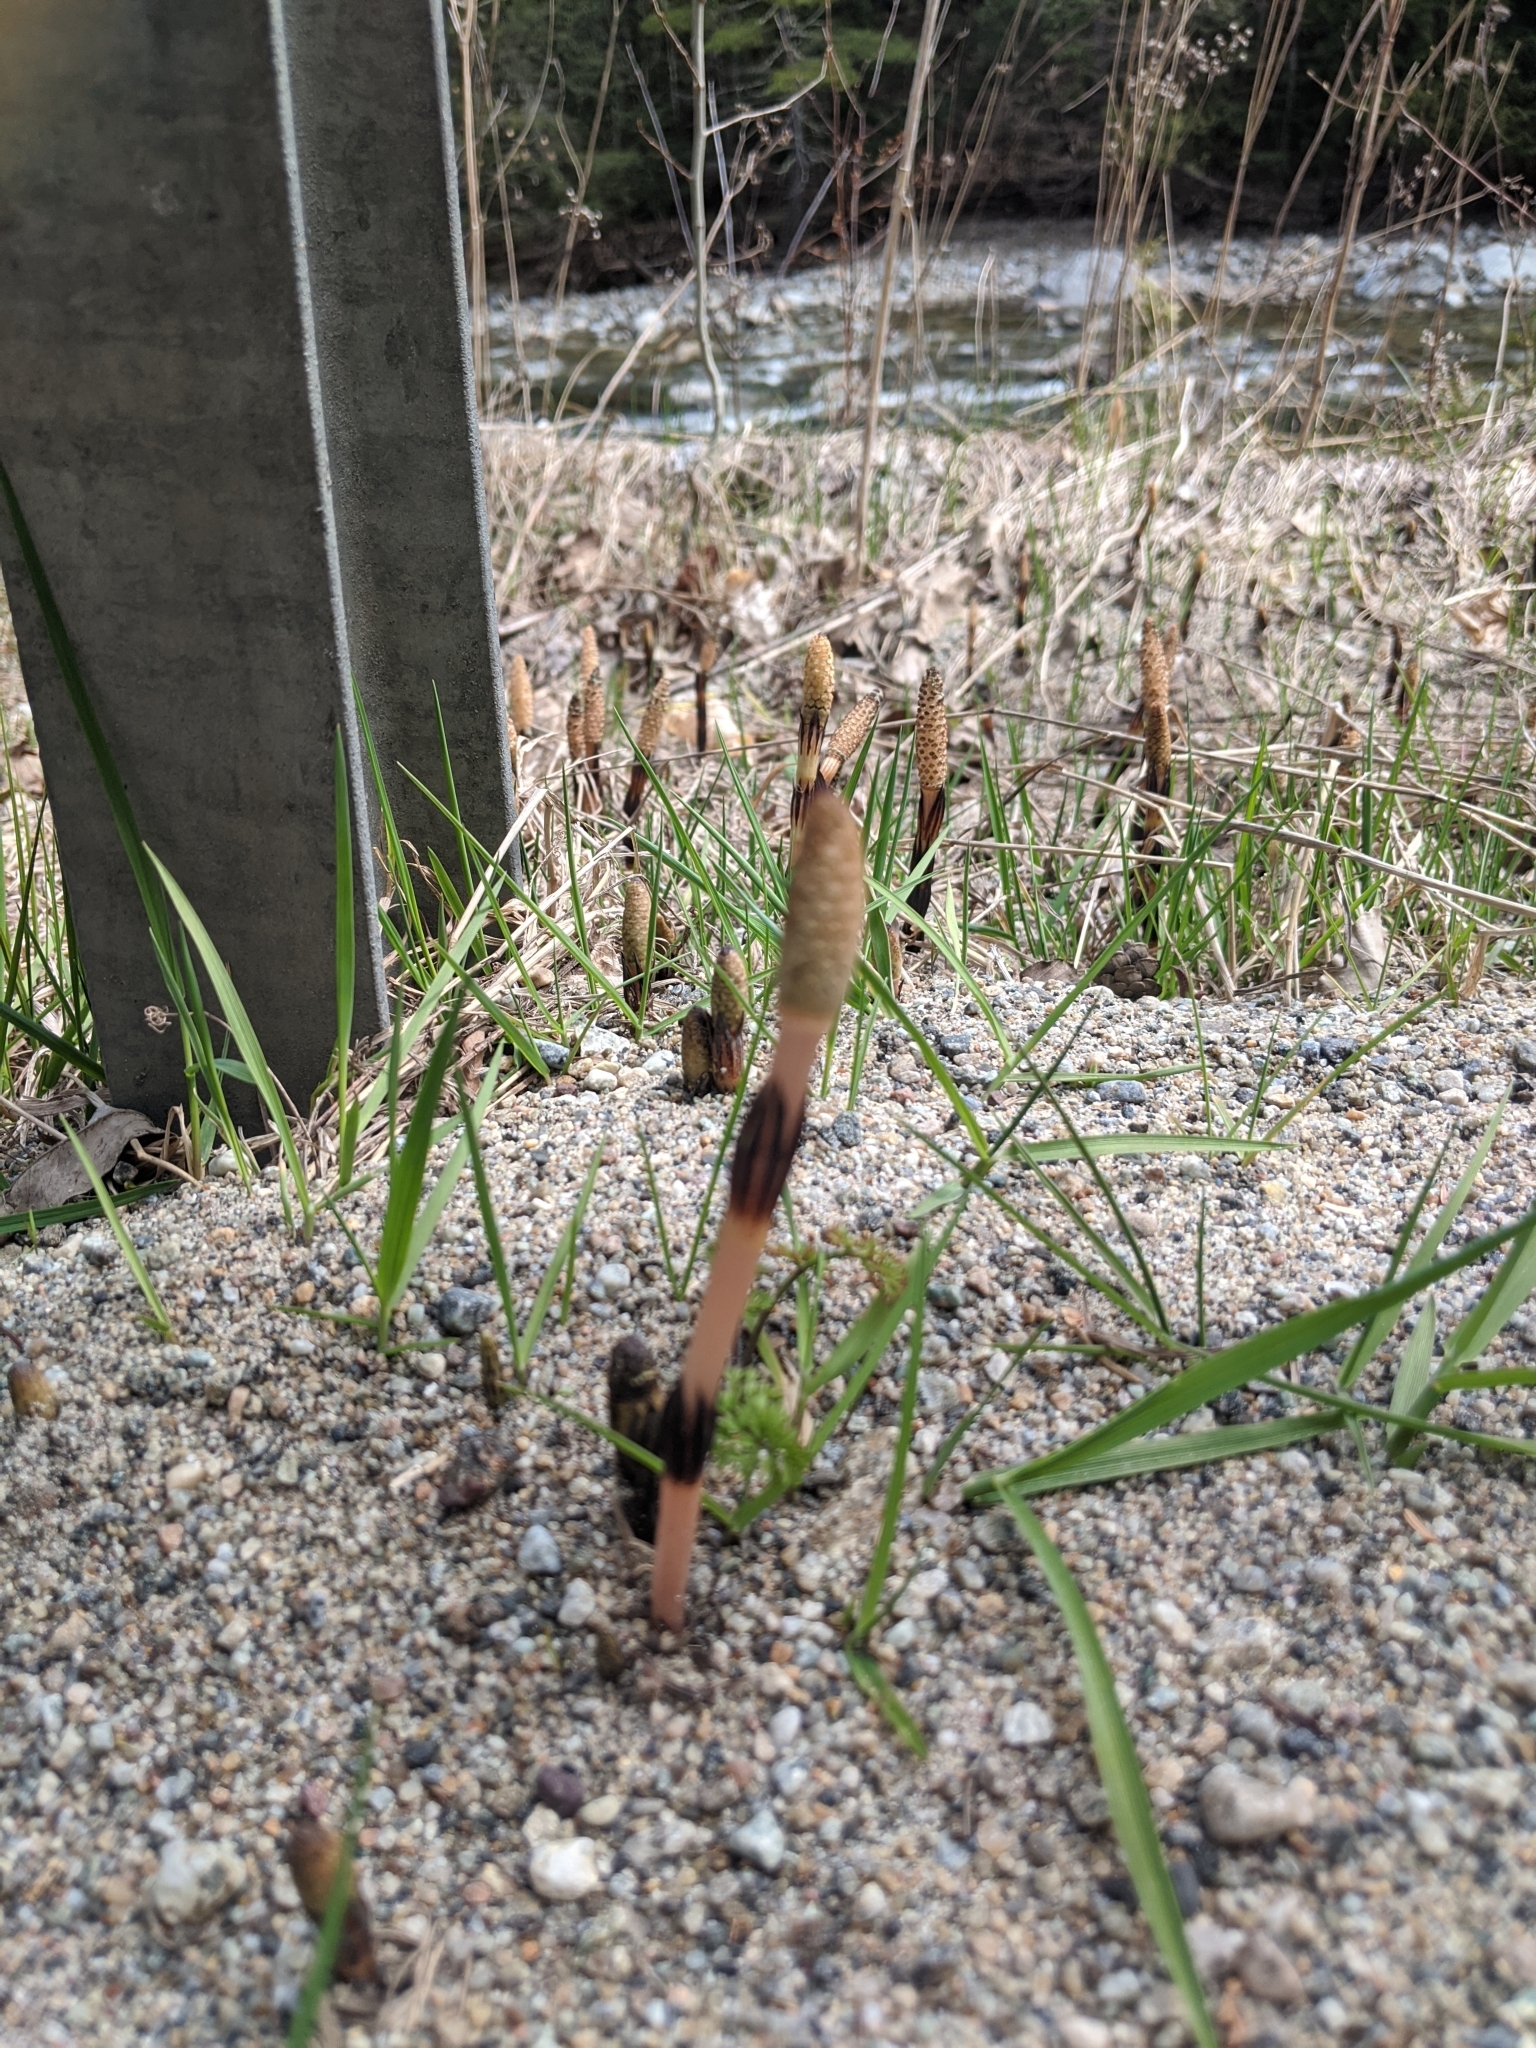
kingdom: Plantae
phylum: Tracheophyta
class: Polypodiopsida
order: Equisetales
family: Equisetaceae
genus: Equisetum
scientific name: Equisetum arvense
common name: Field horsetail
